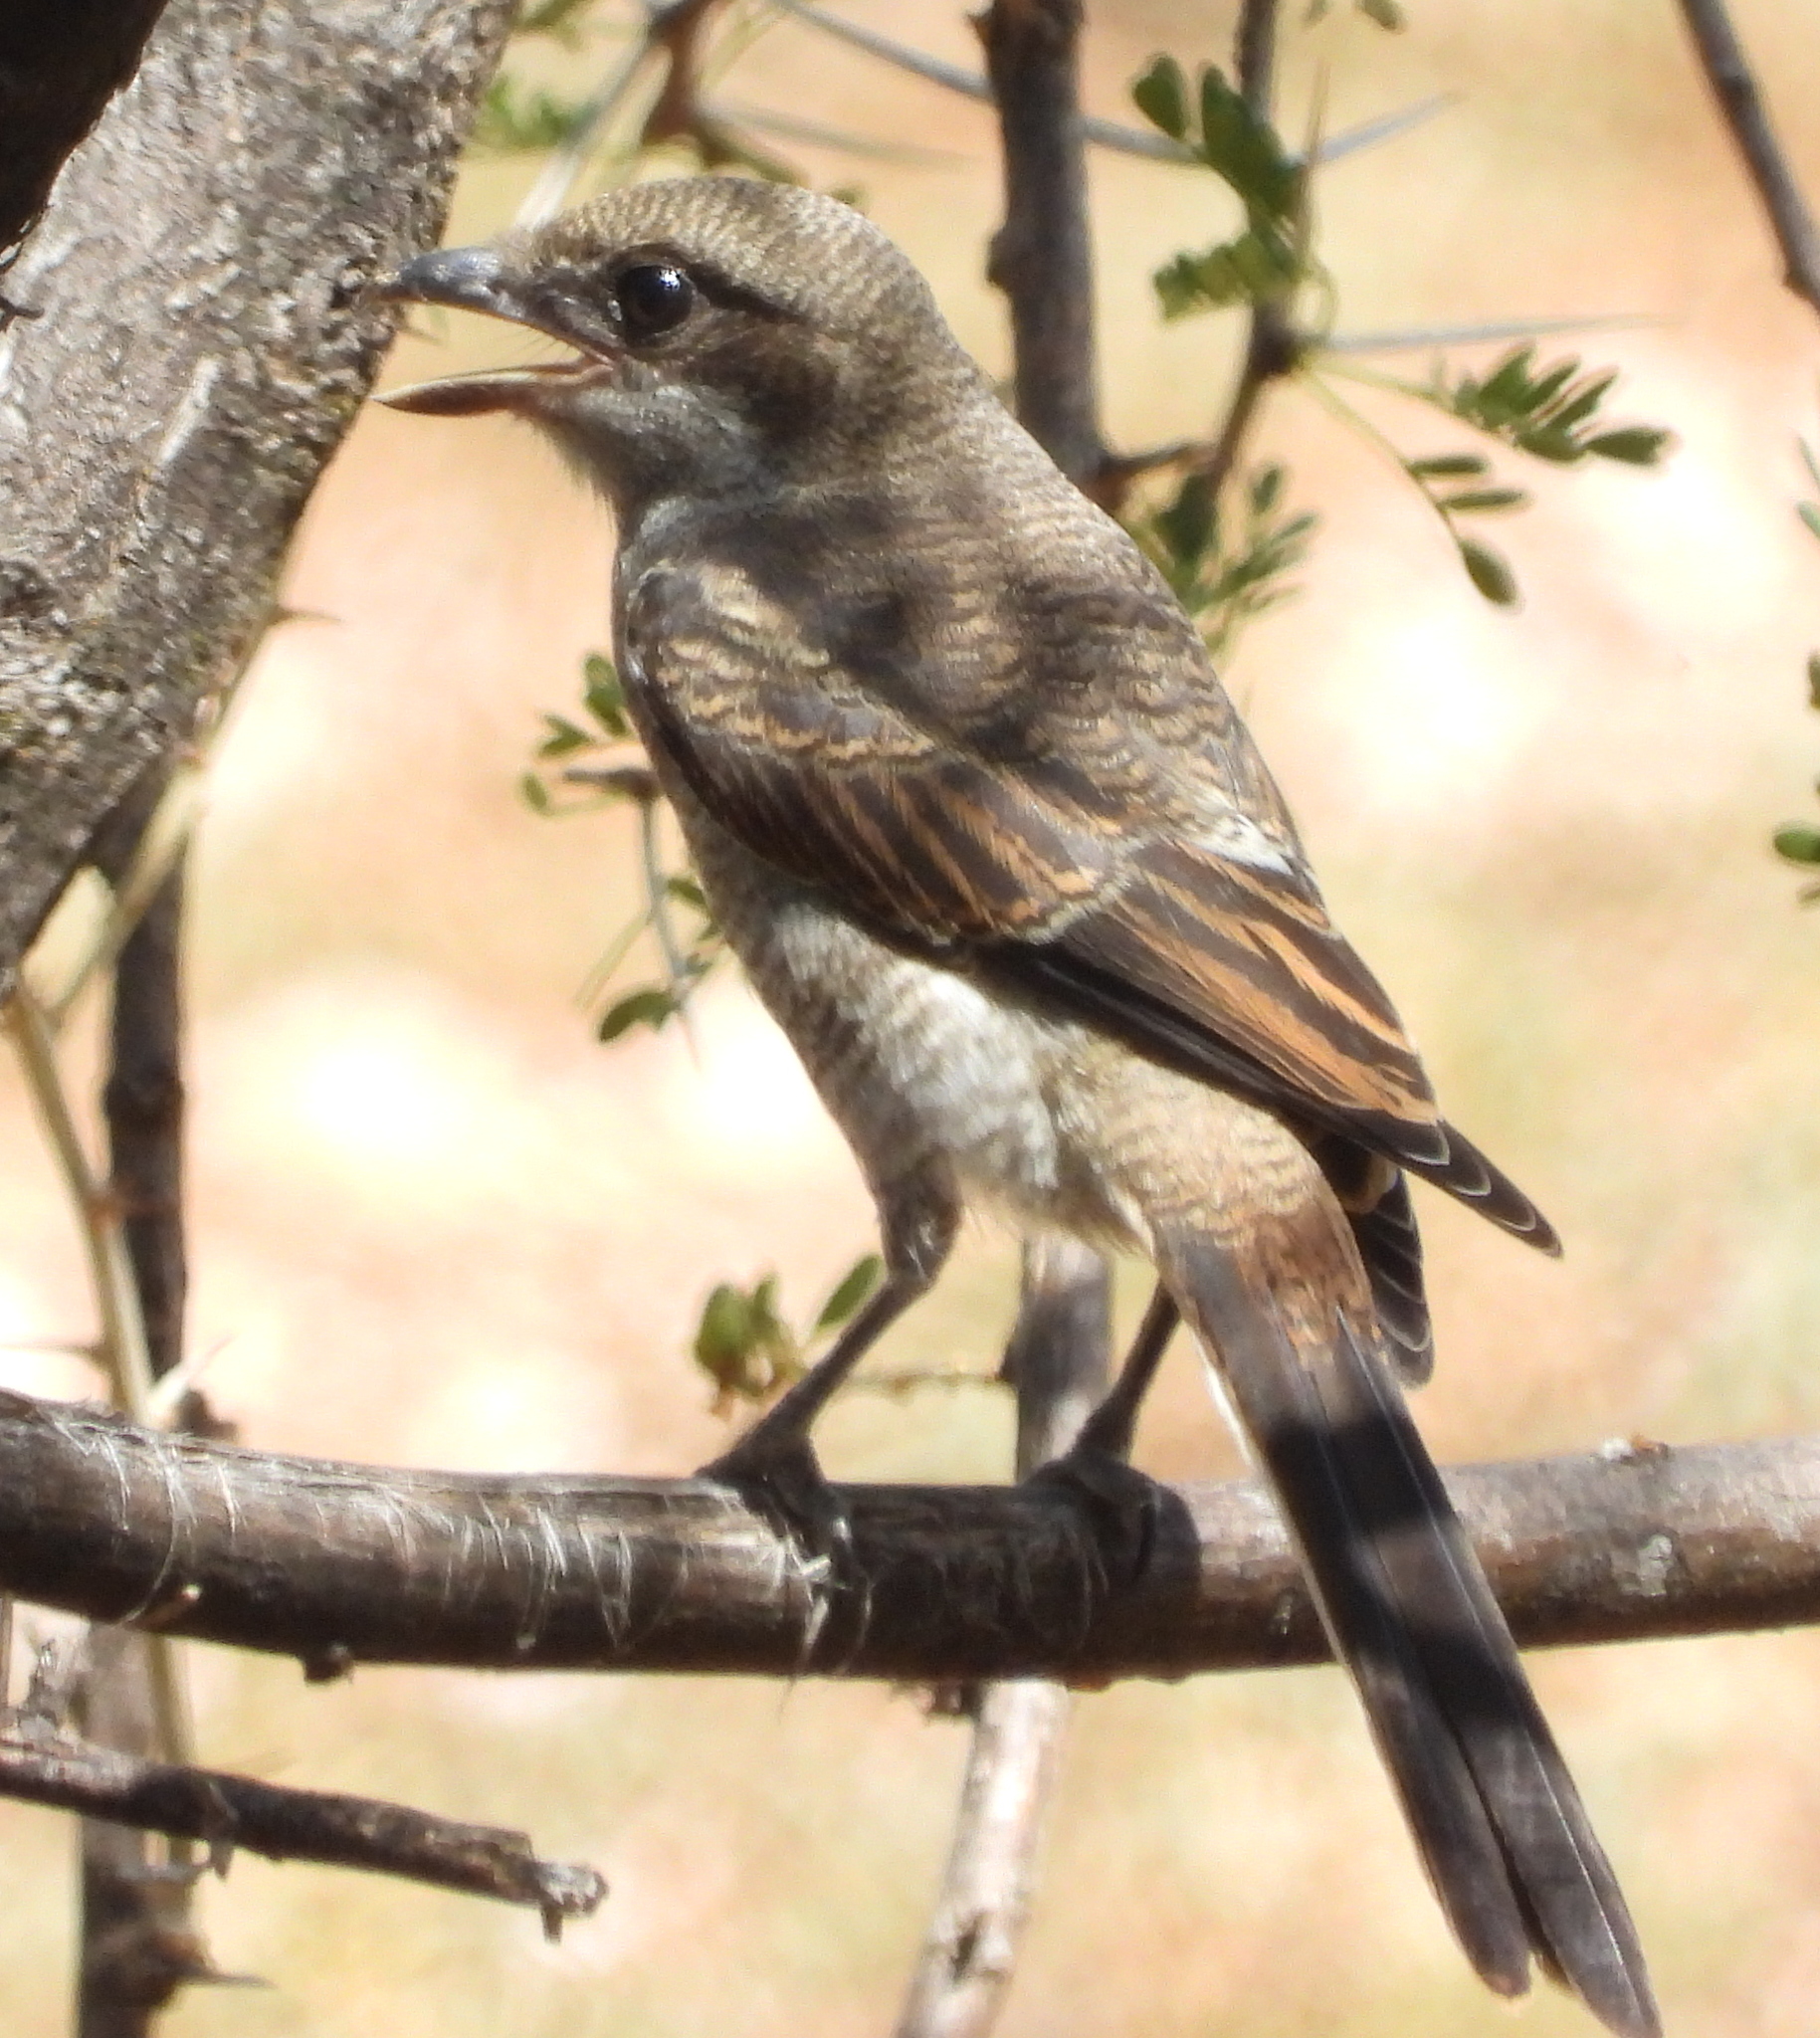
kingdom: Animalia
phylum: Chordata
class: Aves
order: Passeriformes
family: Laniidae
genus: Lanius
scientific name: Lanius collaris
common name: Southern fiscal
